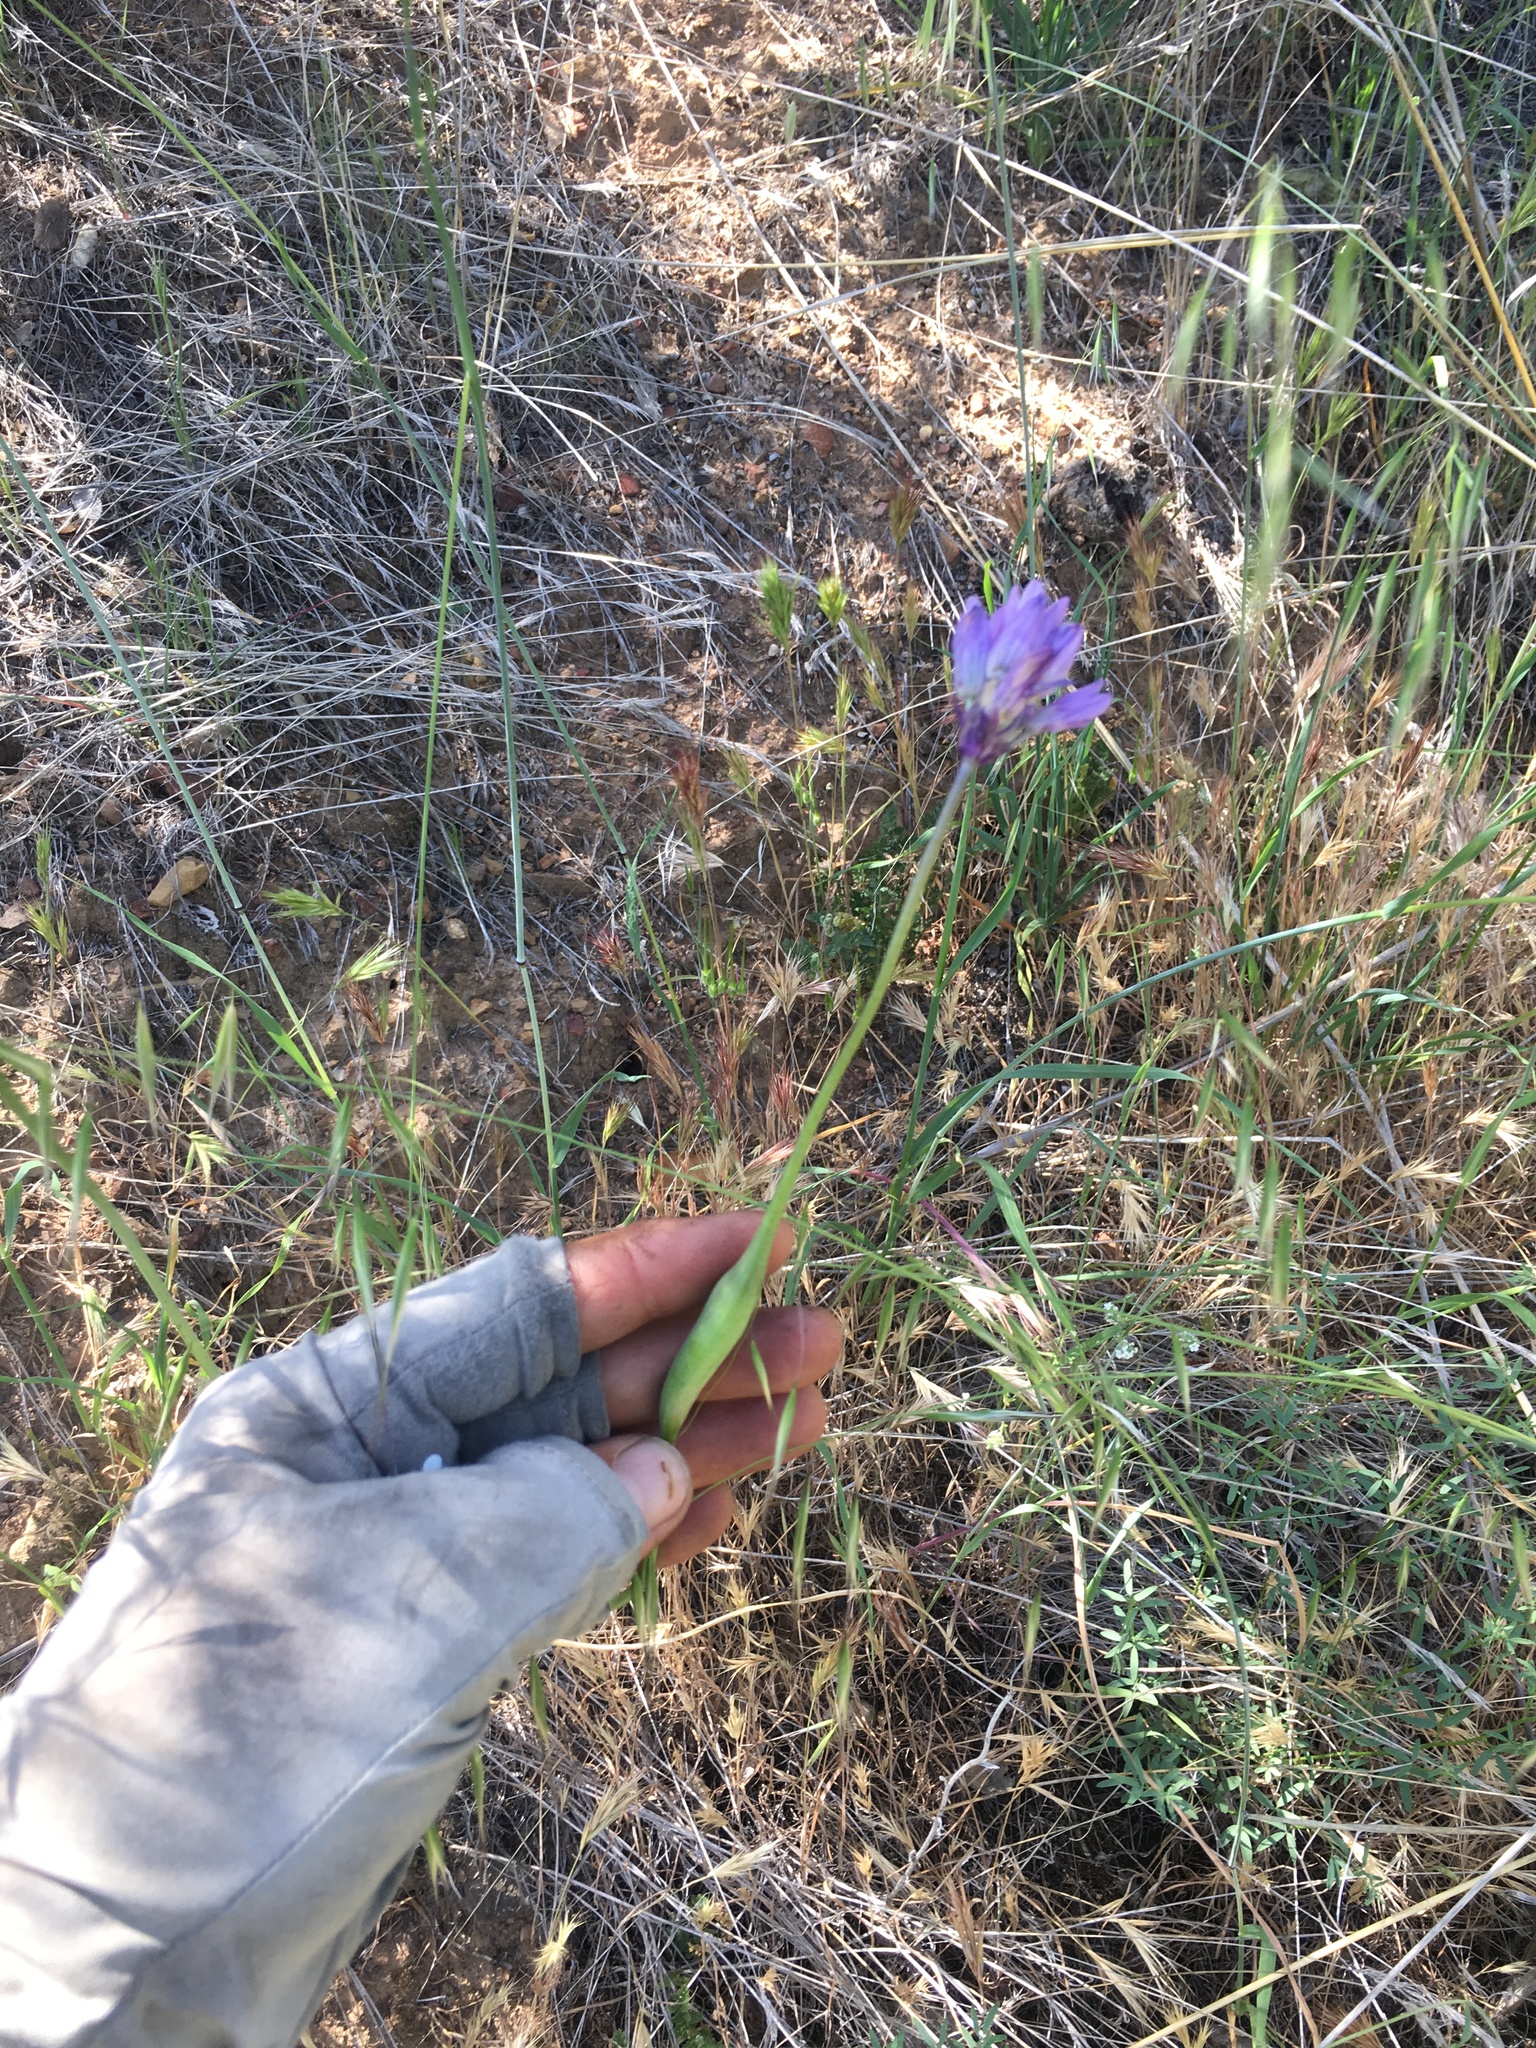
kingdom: Plantae
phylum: Tracheophyta
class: Liliopsida
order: Asparagales
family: Asparagaceae
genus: Dipterostemon
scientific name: Dipterostemon capitatus
